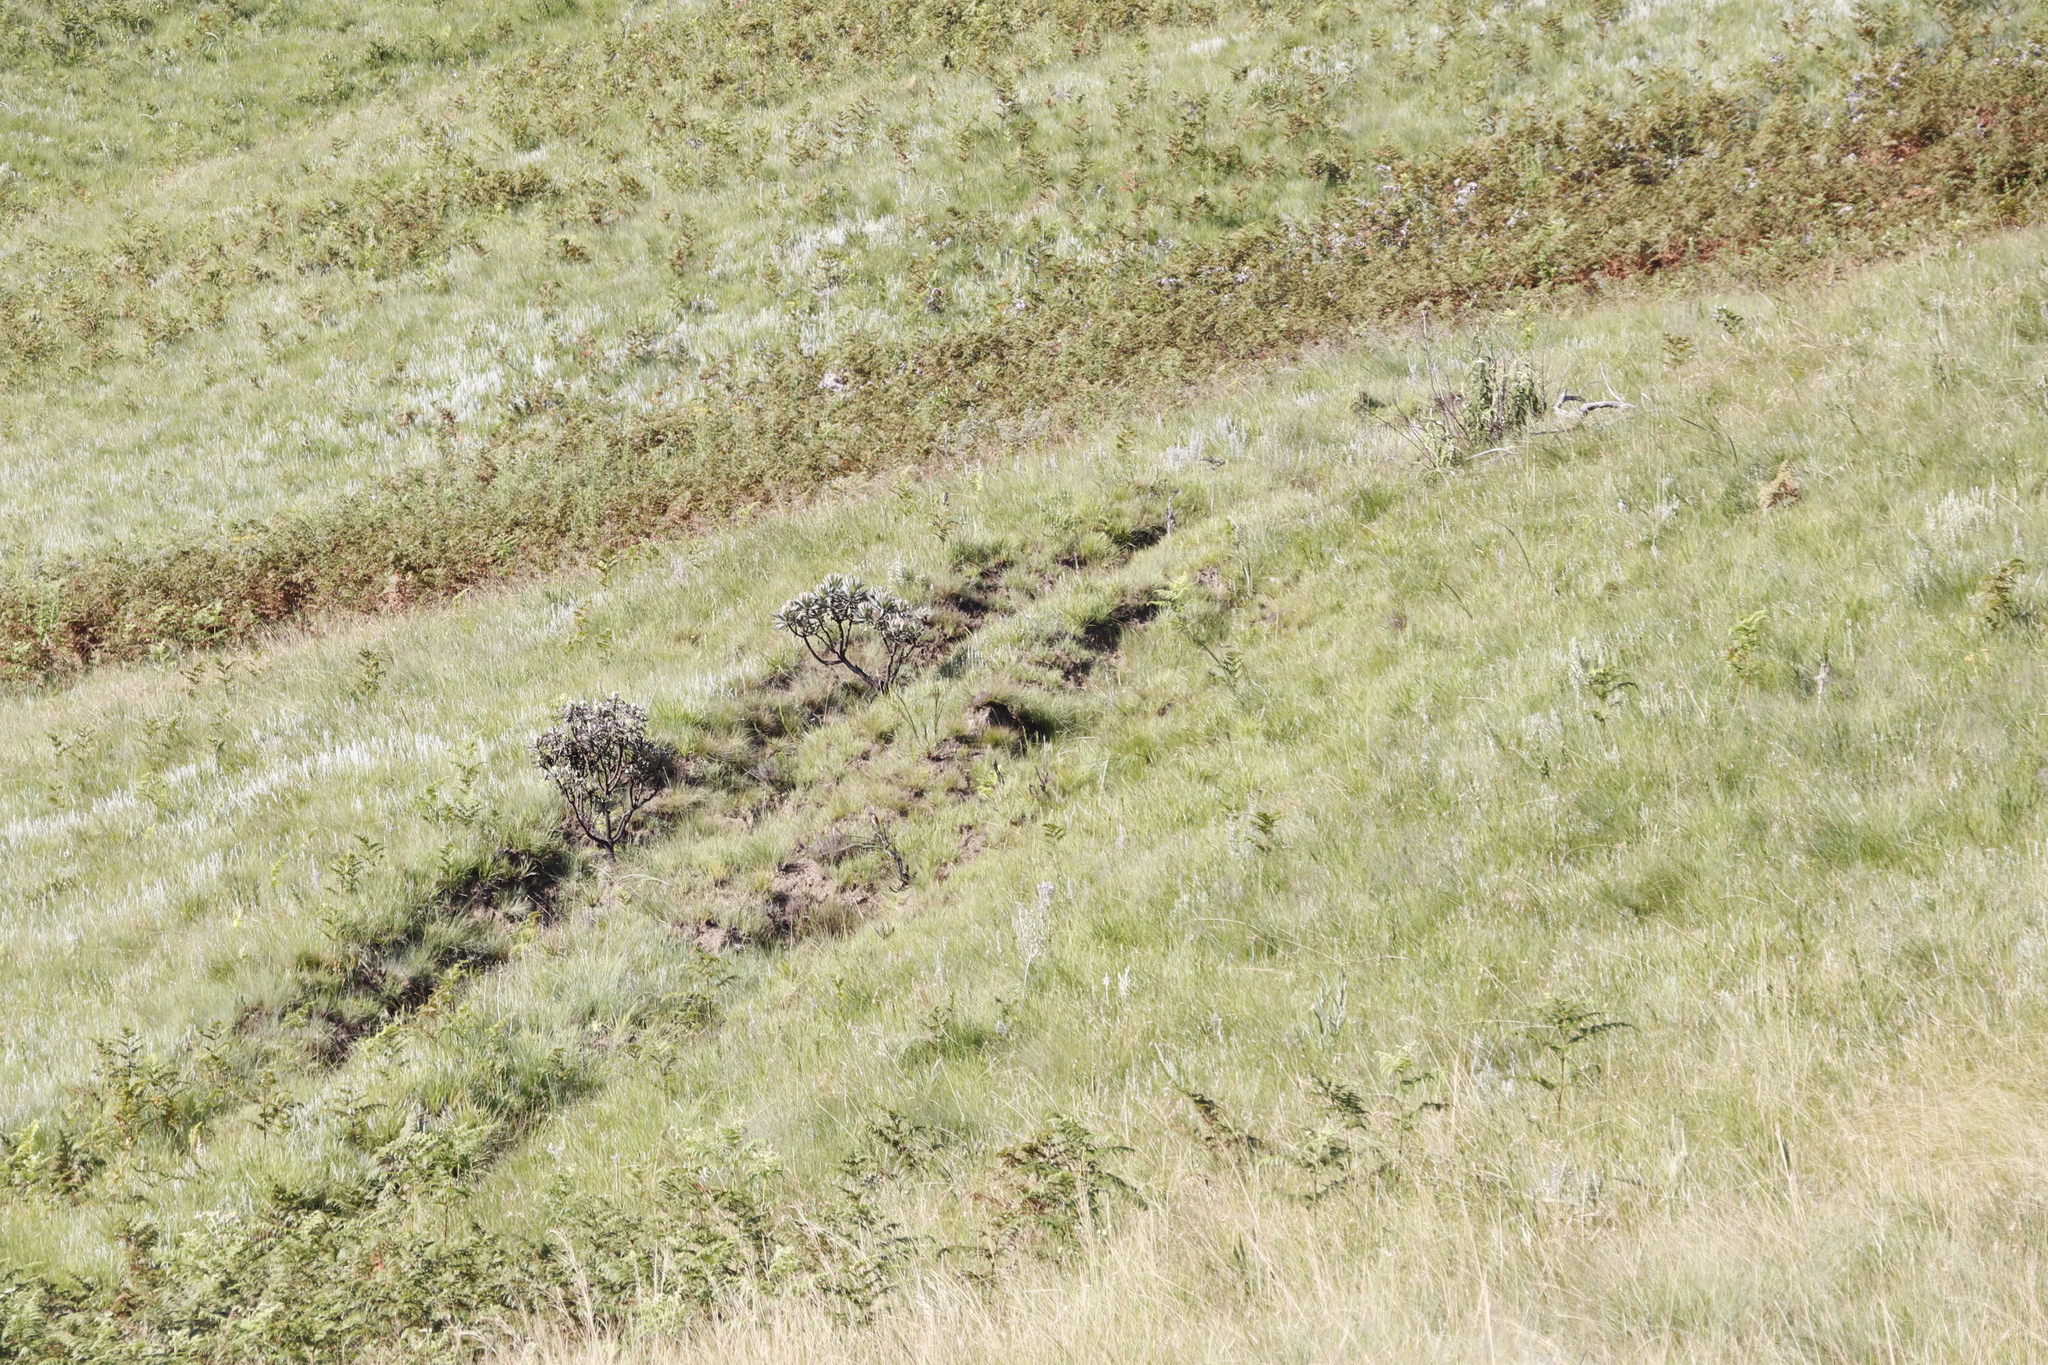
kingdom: Plantae
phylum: Tracheophyta
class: Magnoliopsida
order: Proteales
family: Proteaceae
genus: Protea
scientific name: Protea roupelliae
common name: Silver sugarbush
